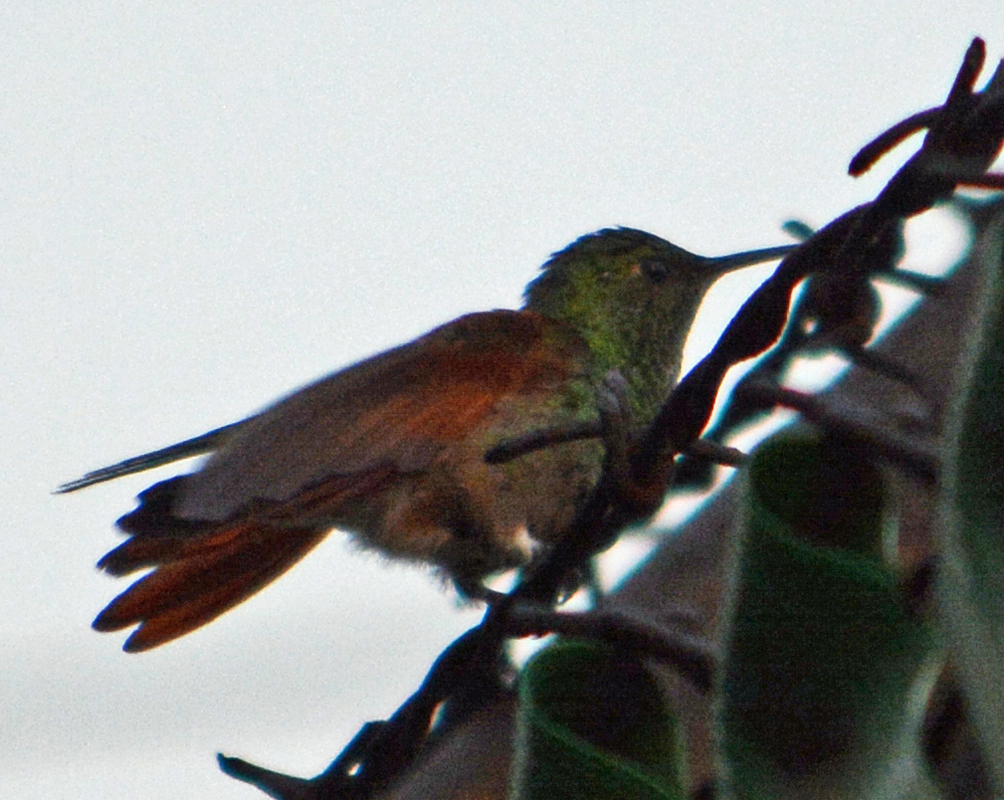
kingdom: Animalia
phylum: Chordata
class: Aves
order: Apodiformes
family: Trochilidae
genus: Saucerottia
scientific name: Saucerottia beryllina
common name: Berylline hummingbird
